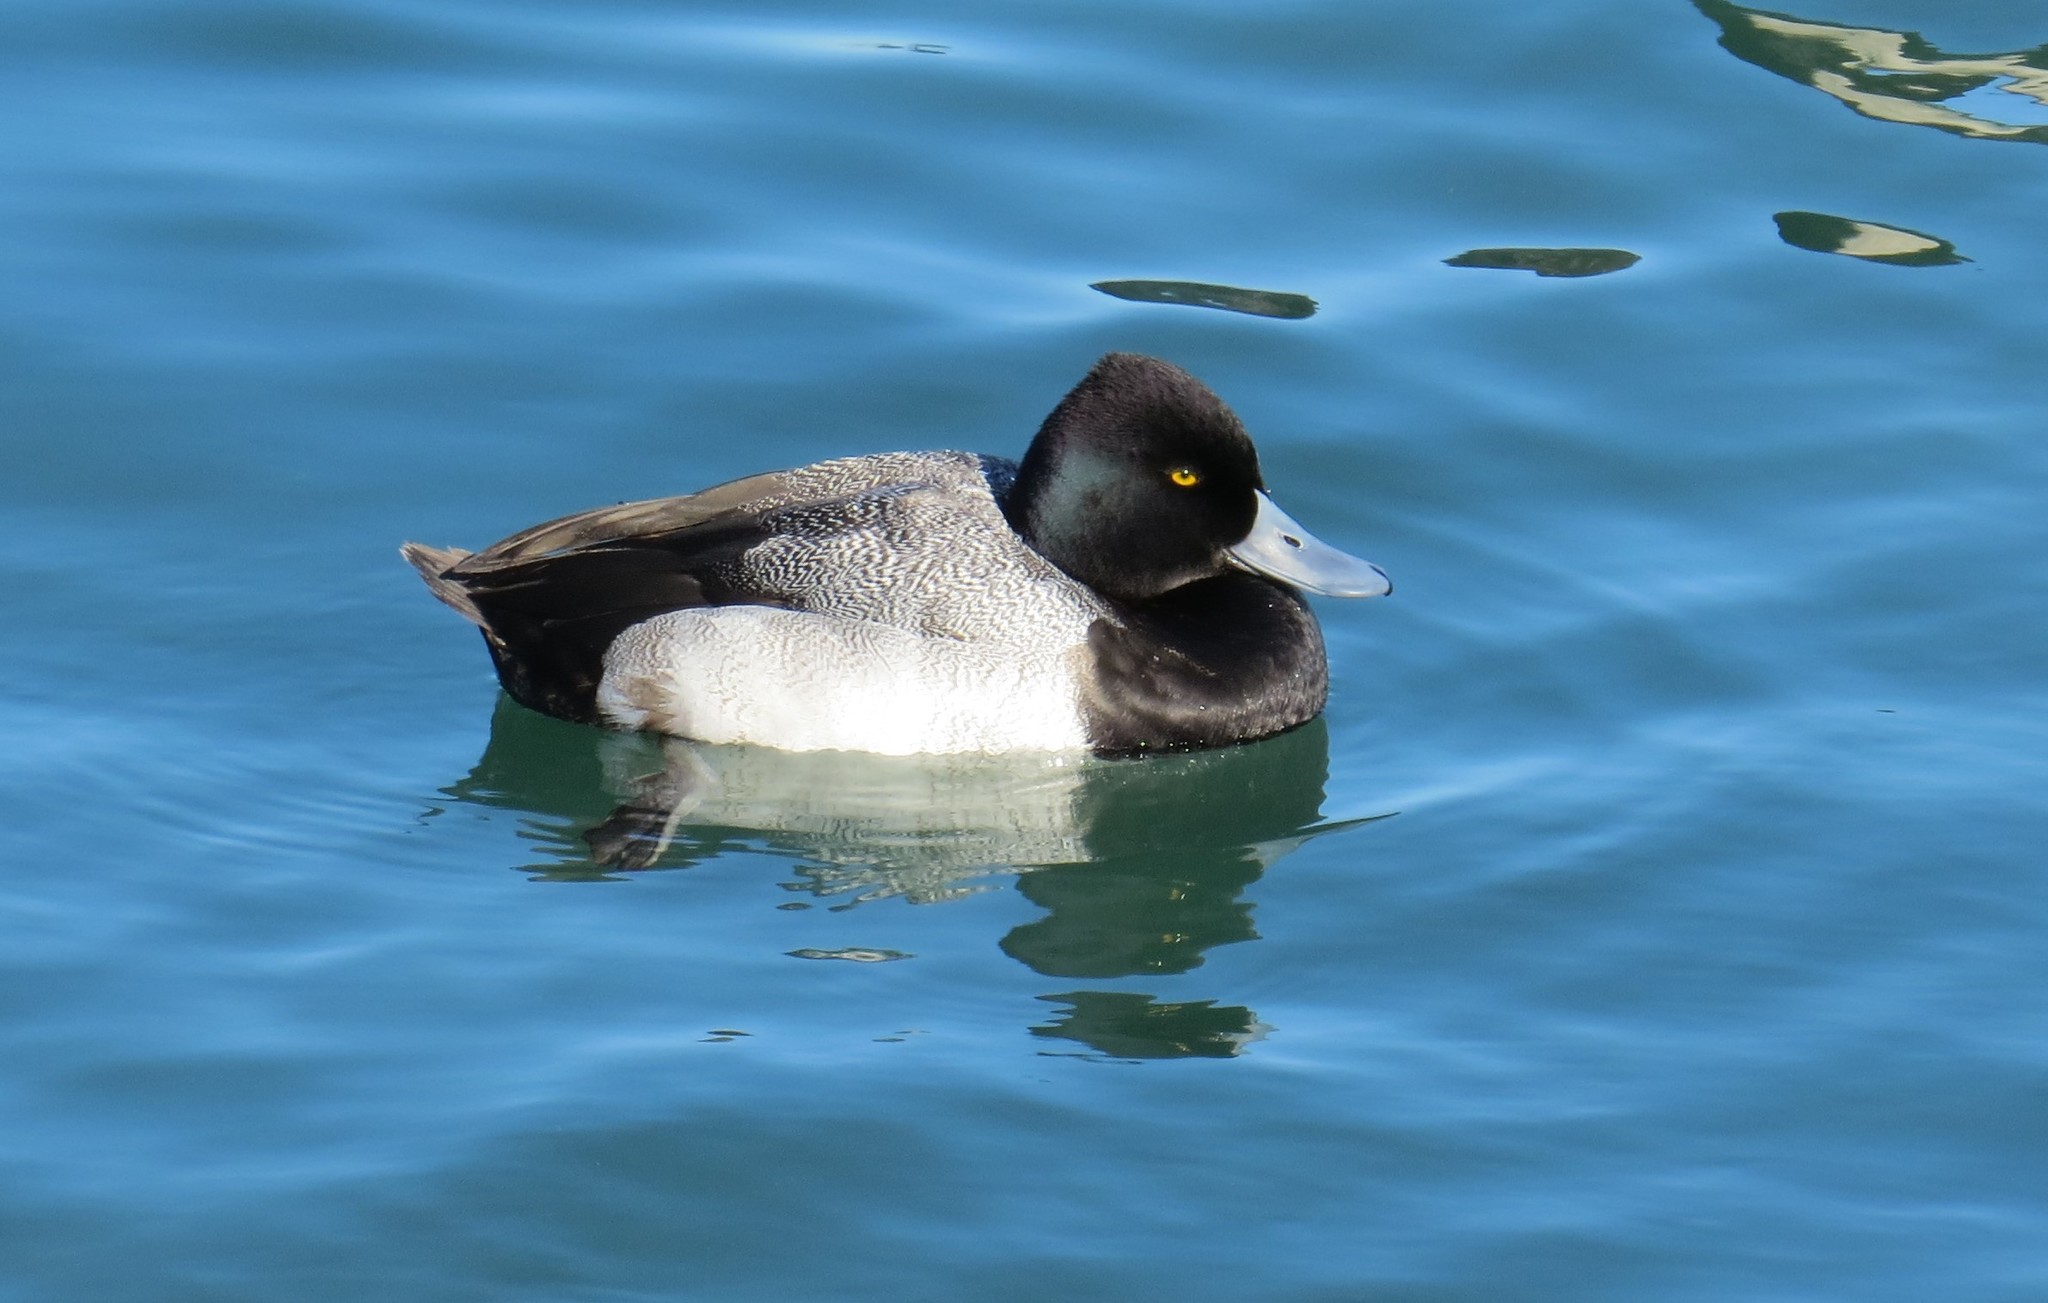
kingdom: Animalia
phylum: Chordata
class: Aves
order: Anseriformes
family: Anatidae
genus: Aythya
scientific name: Aythya affinis
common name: Lesser scaup
